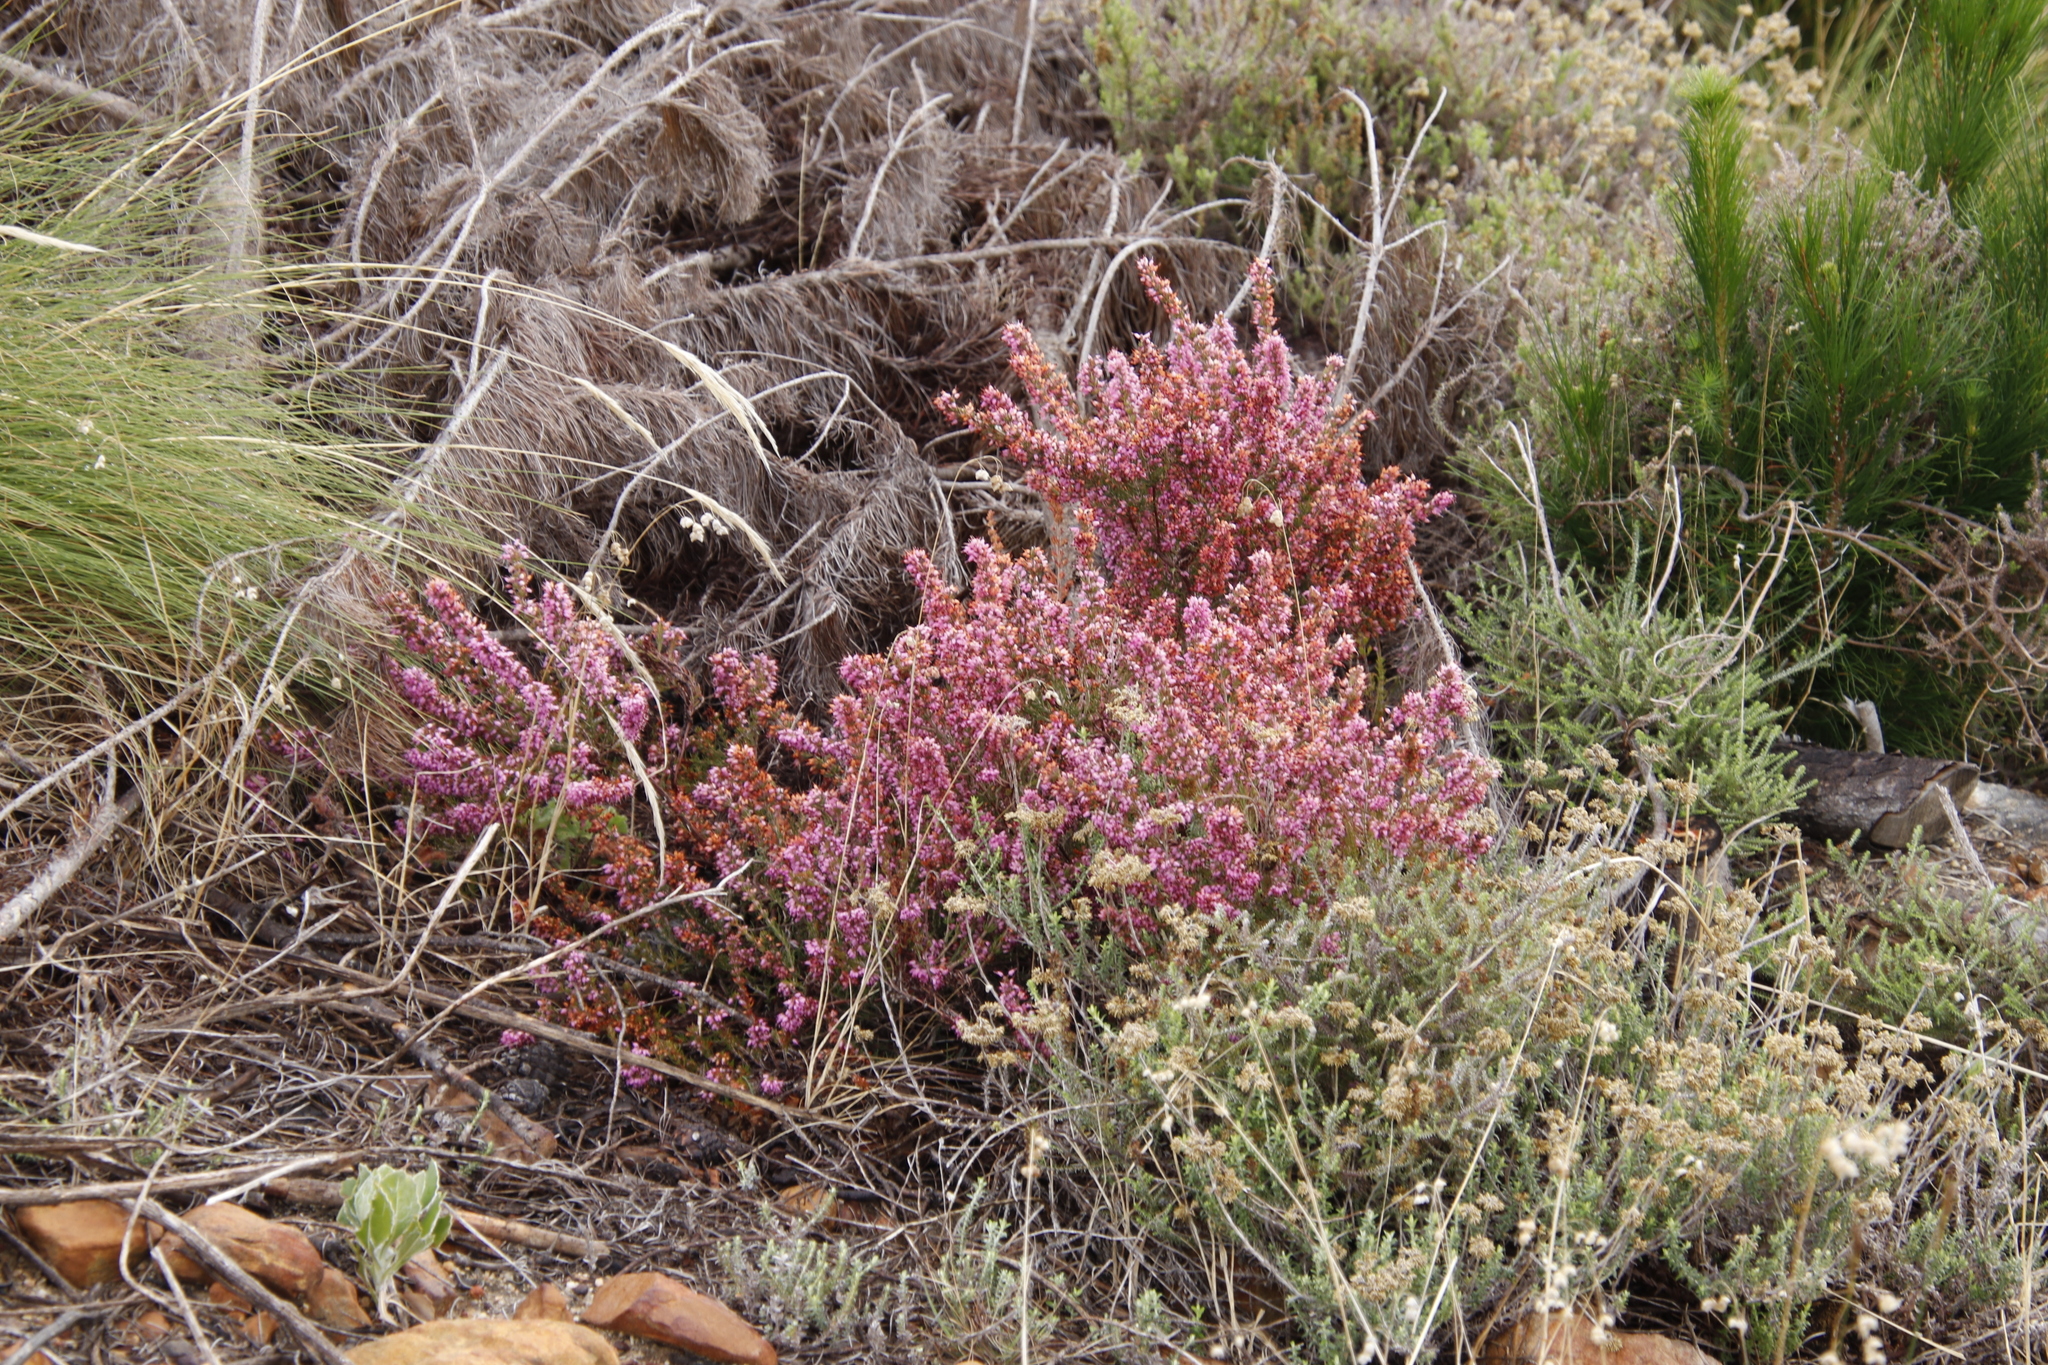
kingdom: Plantae
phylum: Tracheophyta
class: Magnoliopsida
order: Ericales
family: Ericaceae
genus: Erica
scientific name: Erica nudiflora
